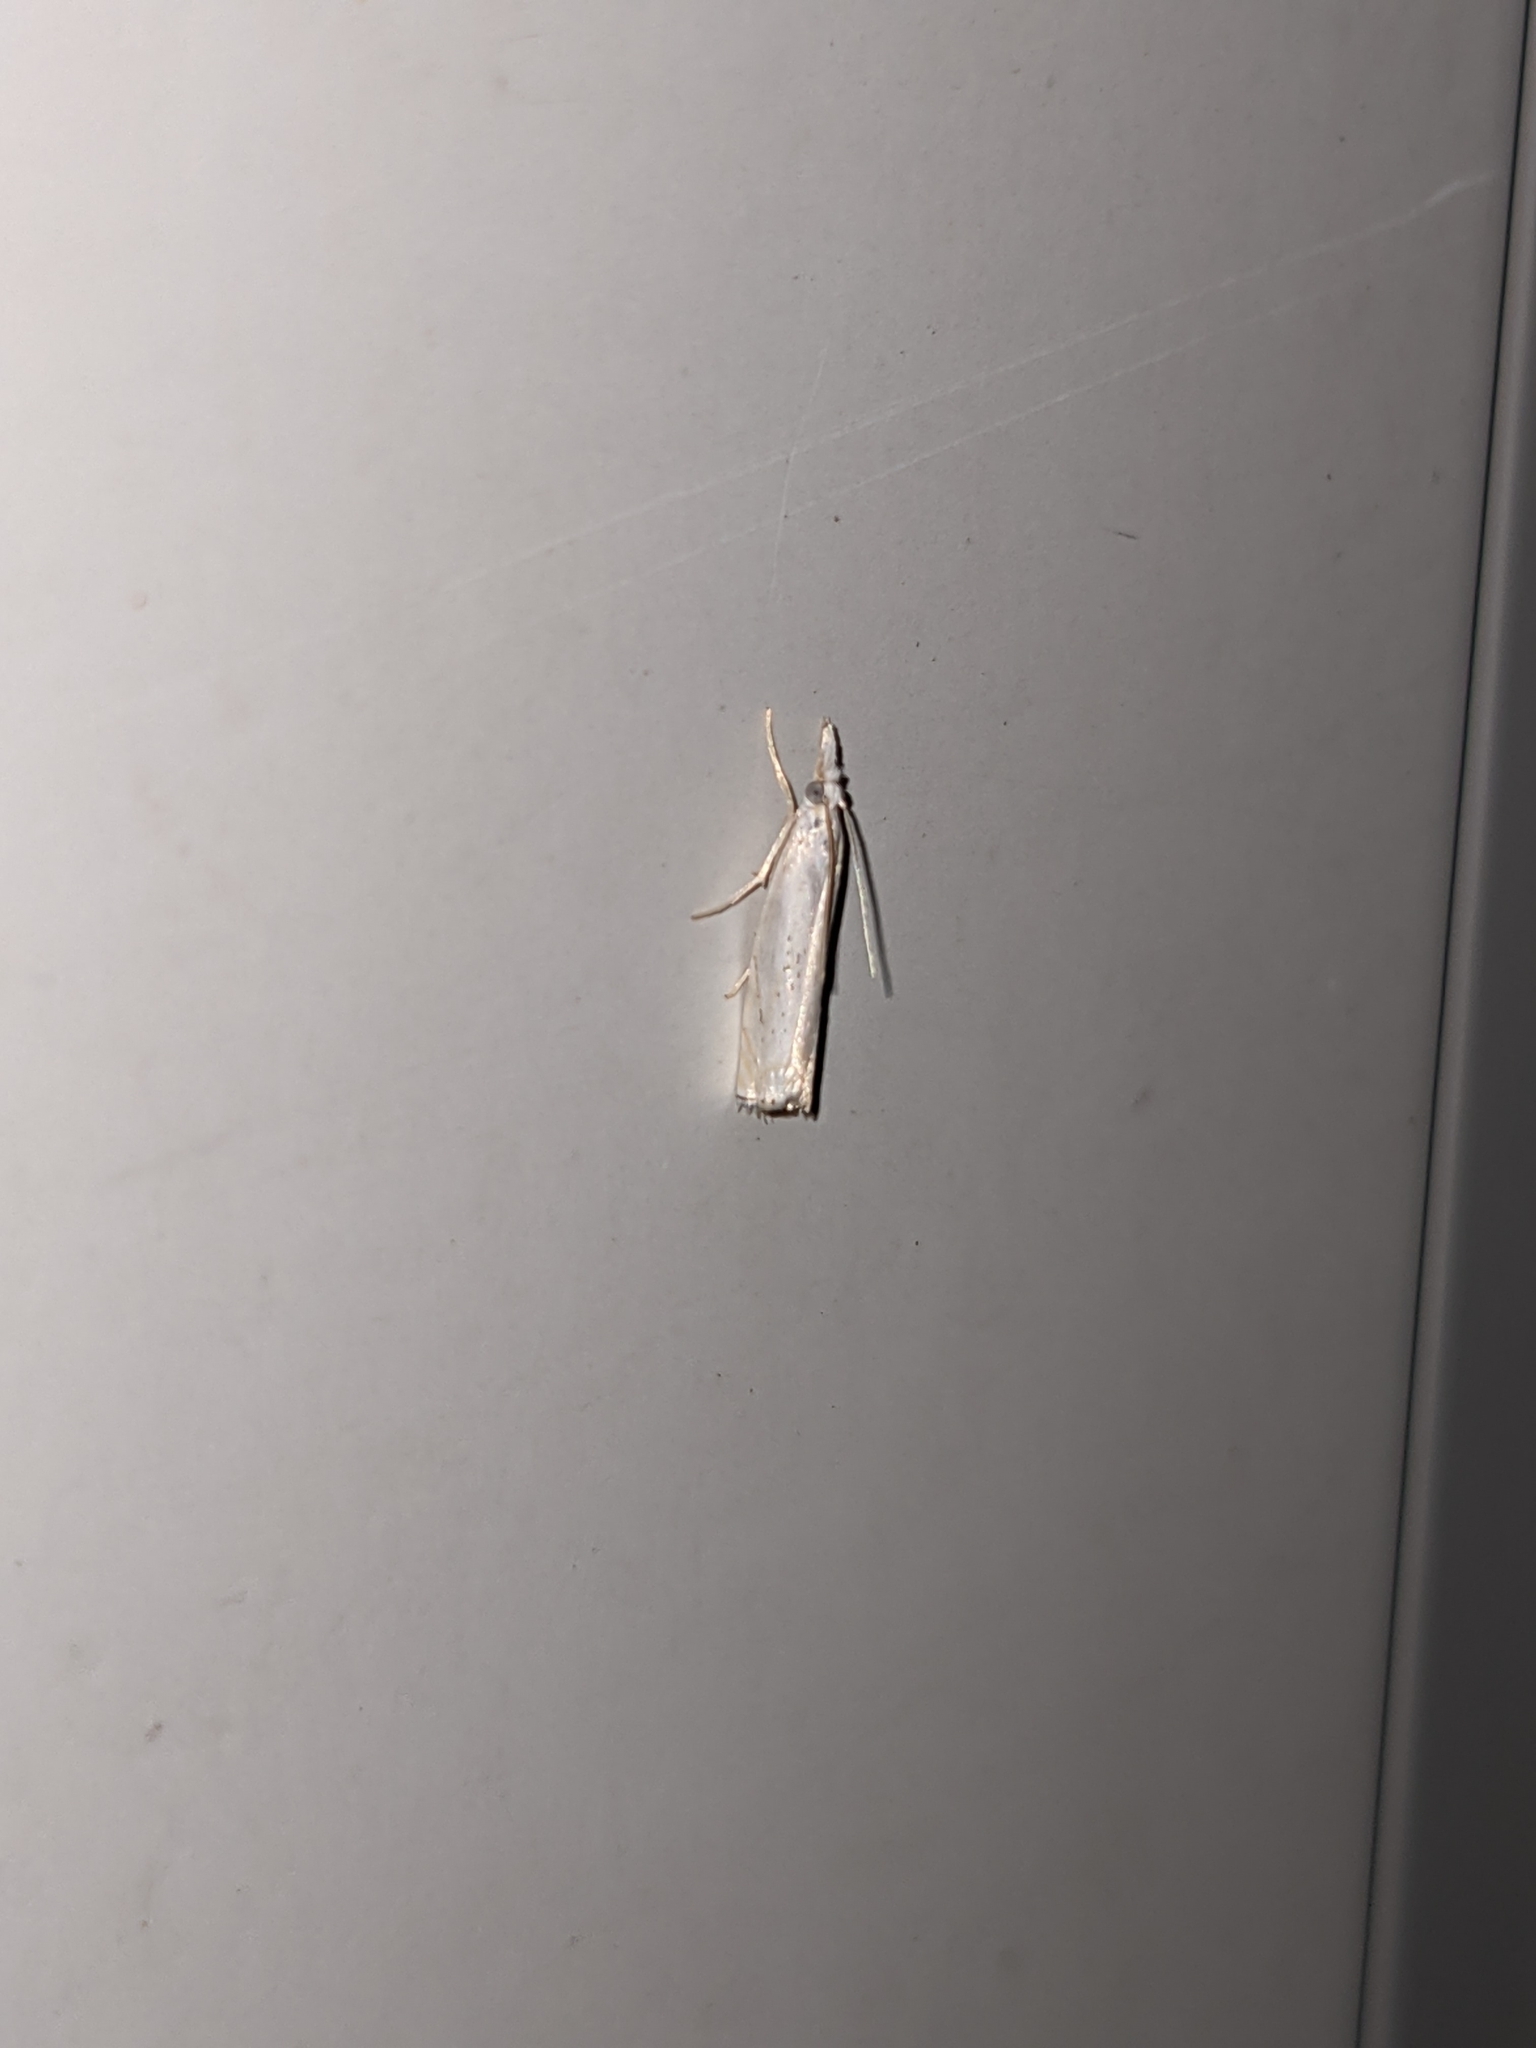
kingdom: Animalia
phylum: Arthropoda
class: Insecta
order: Lepidoptera
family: Crambidae
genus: Crambus
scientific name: Crambus albellus
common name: Small white grass-veneer
